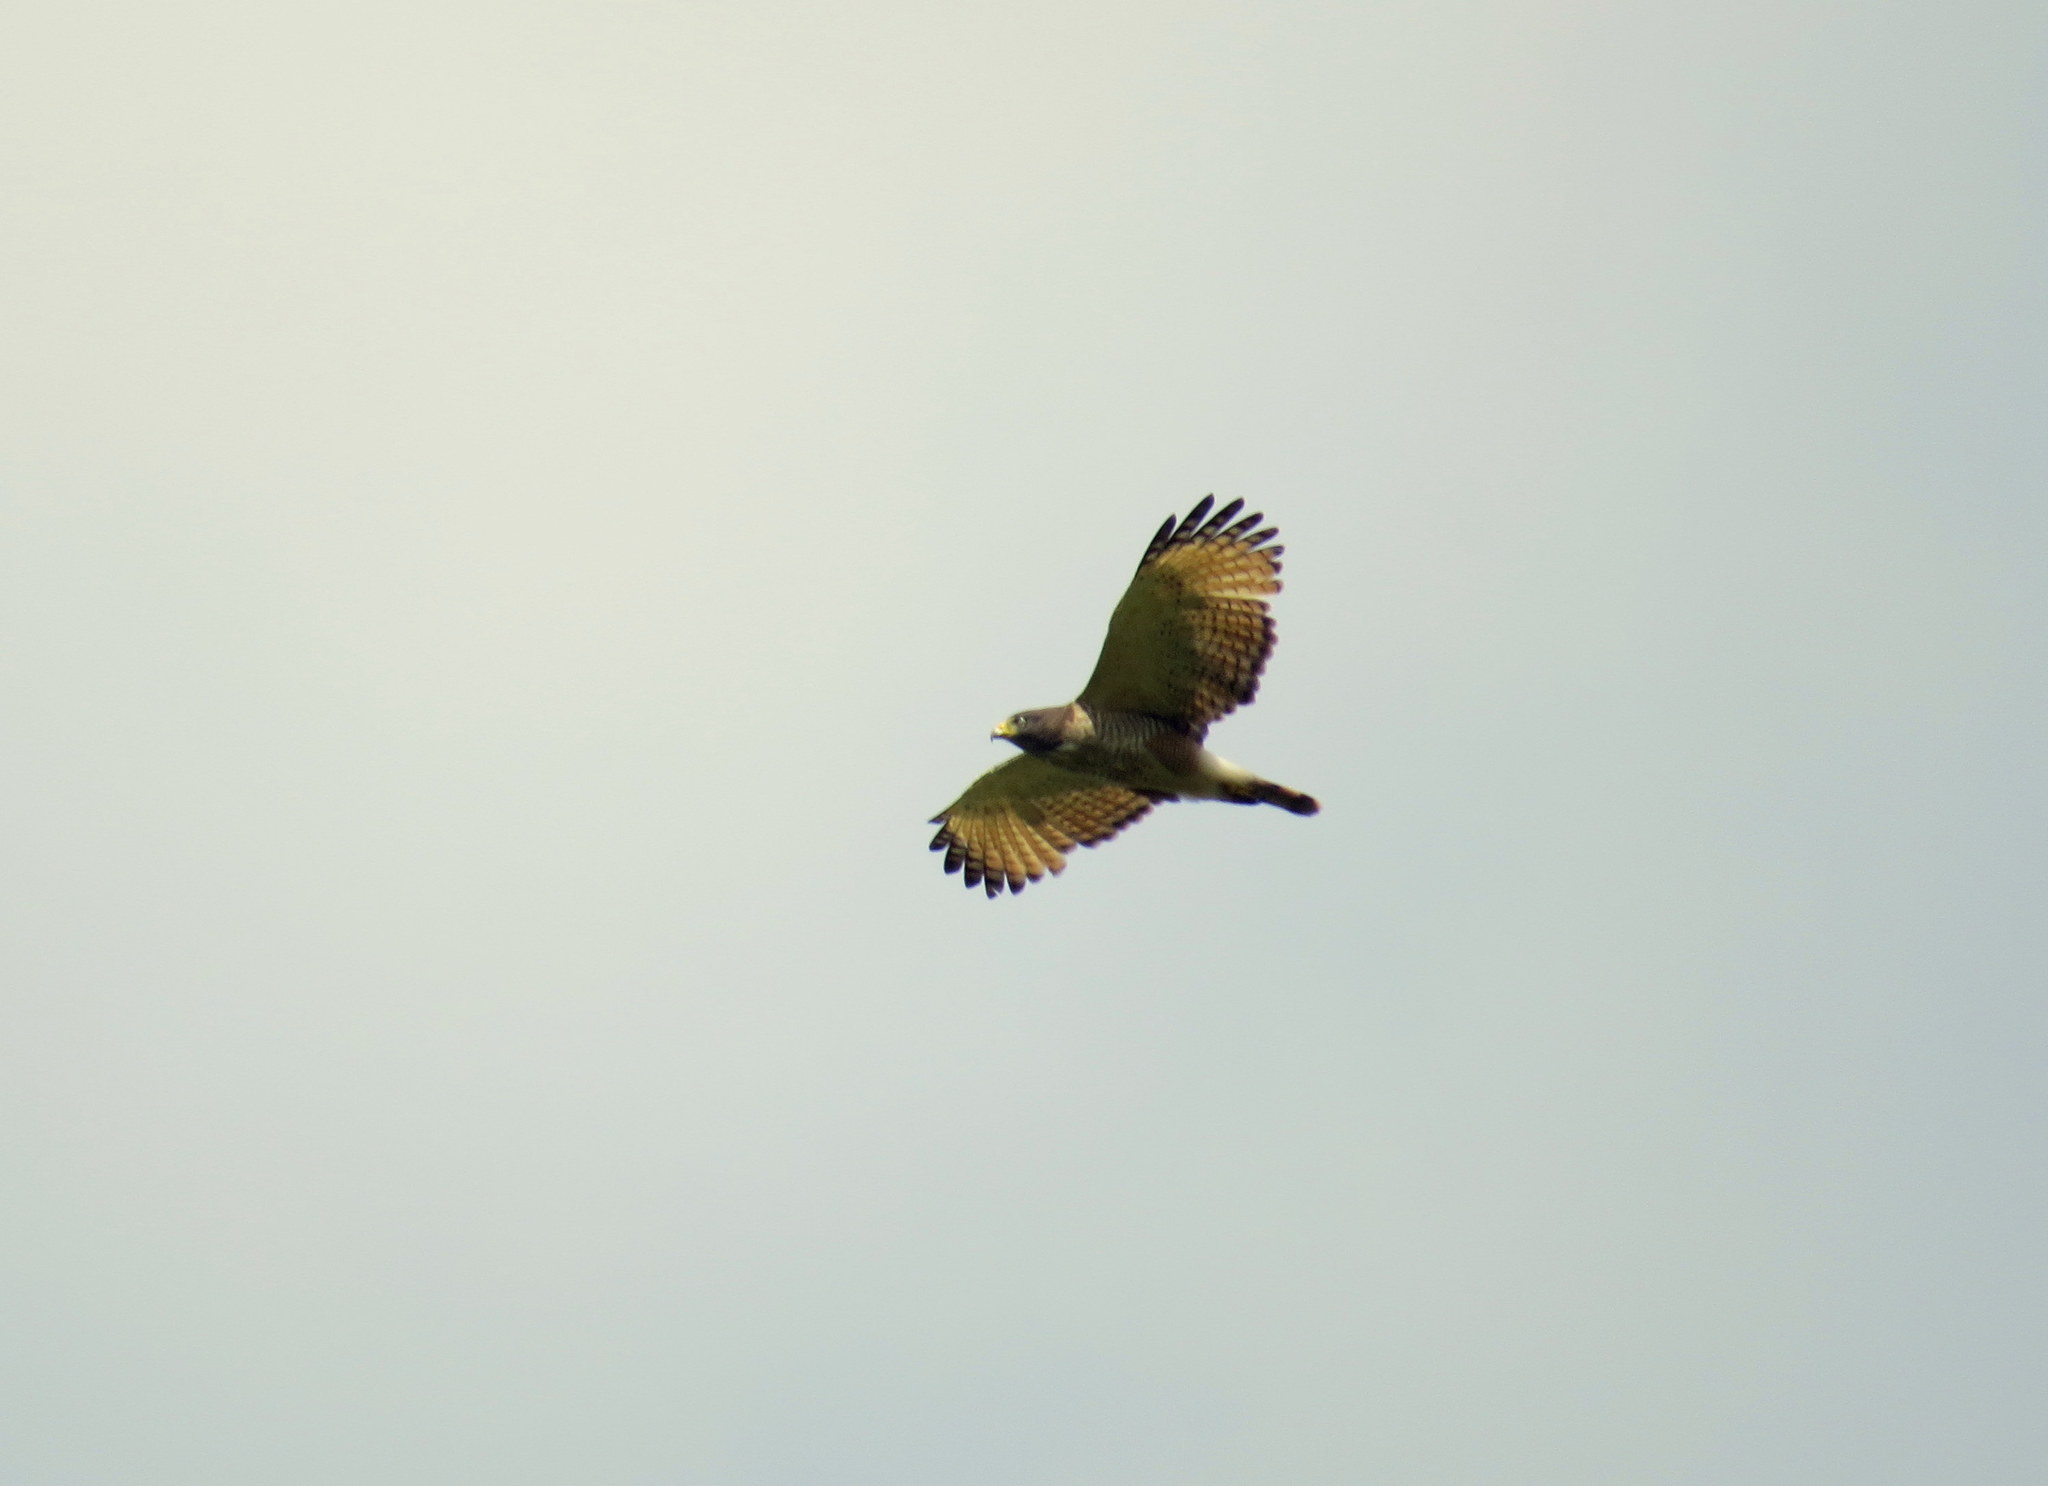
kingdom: Animalia
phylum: Chordata
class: Aves
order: Accipitriformes
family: Accipitridae
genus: Rupornis
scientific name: Rupornis magnirostris
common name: Roadside hawk
